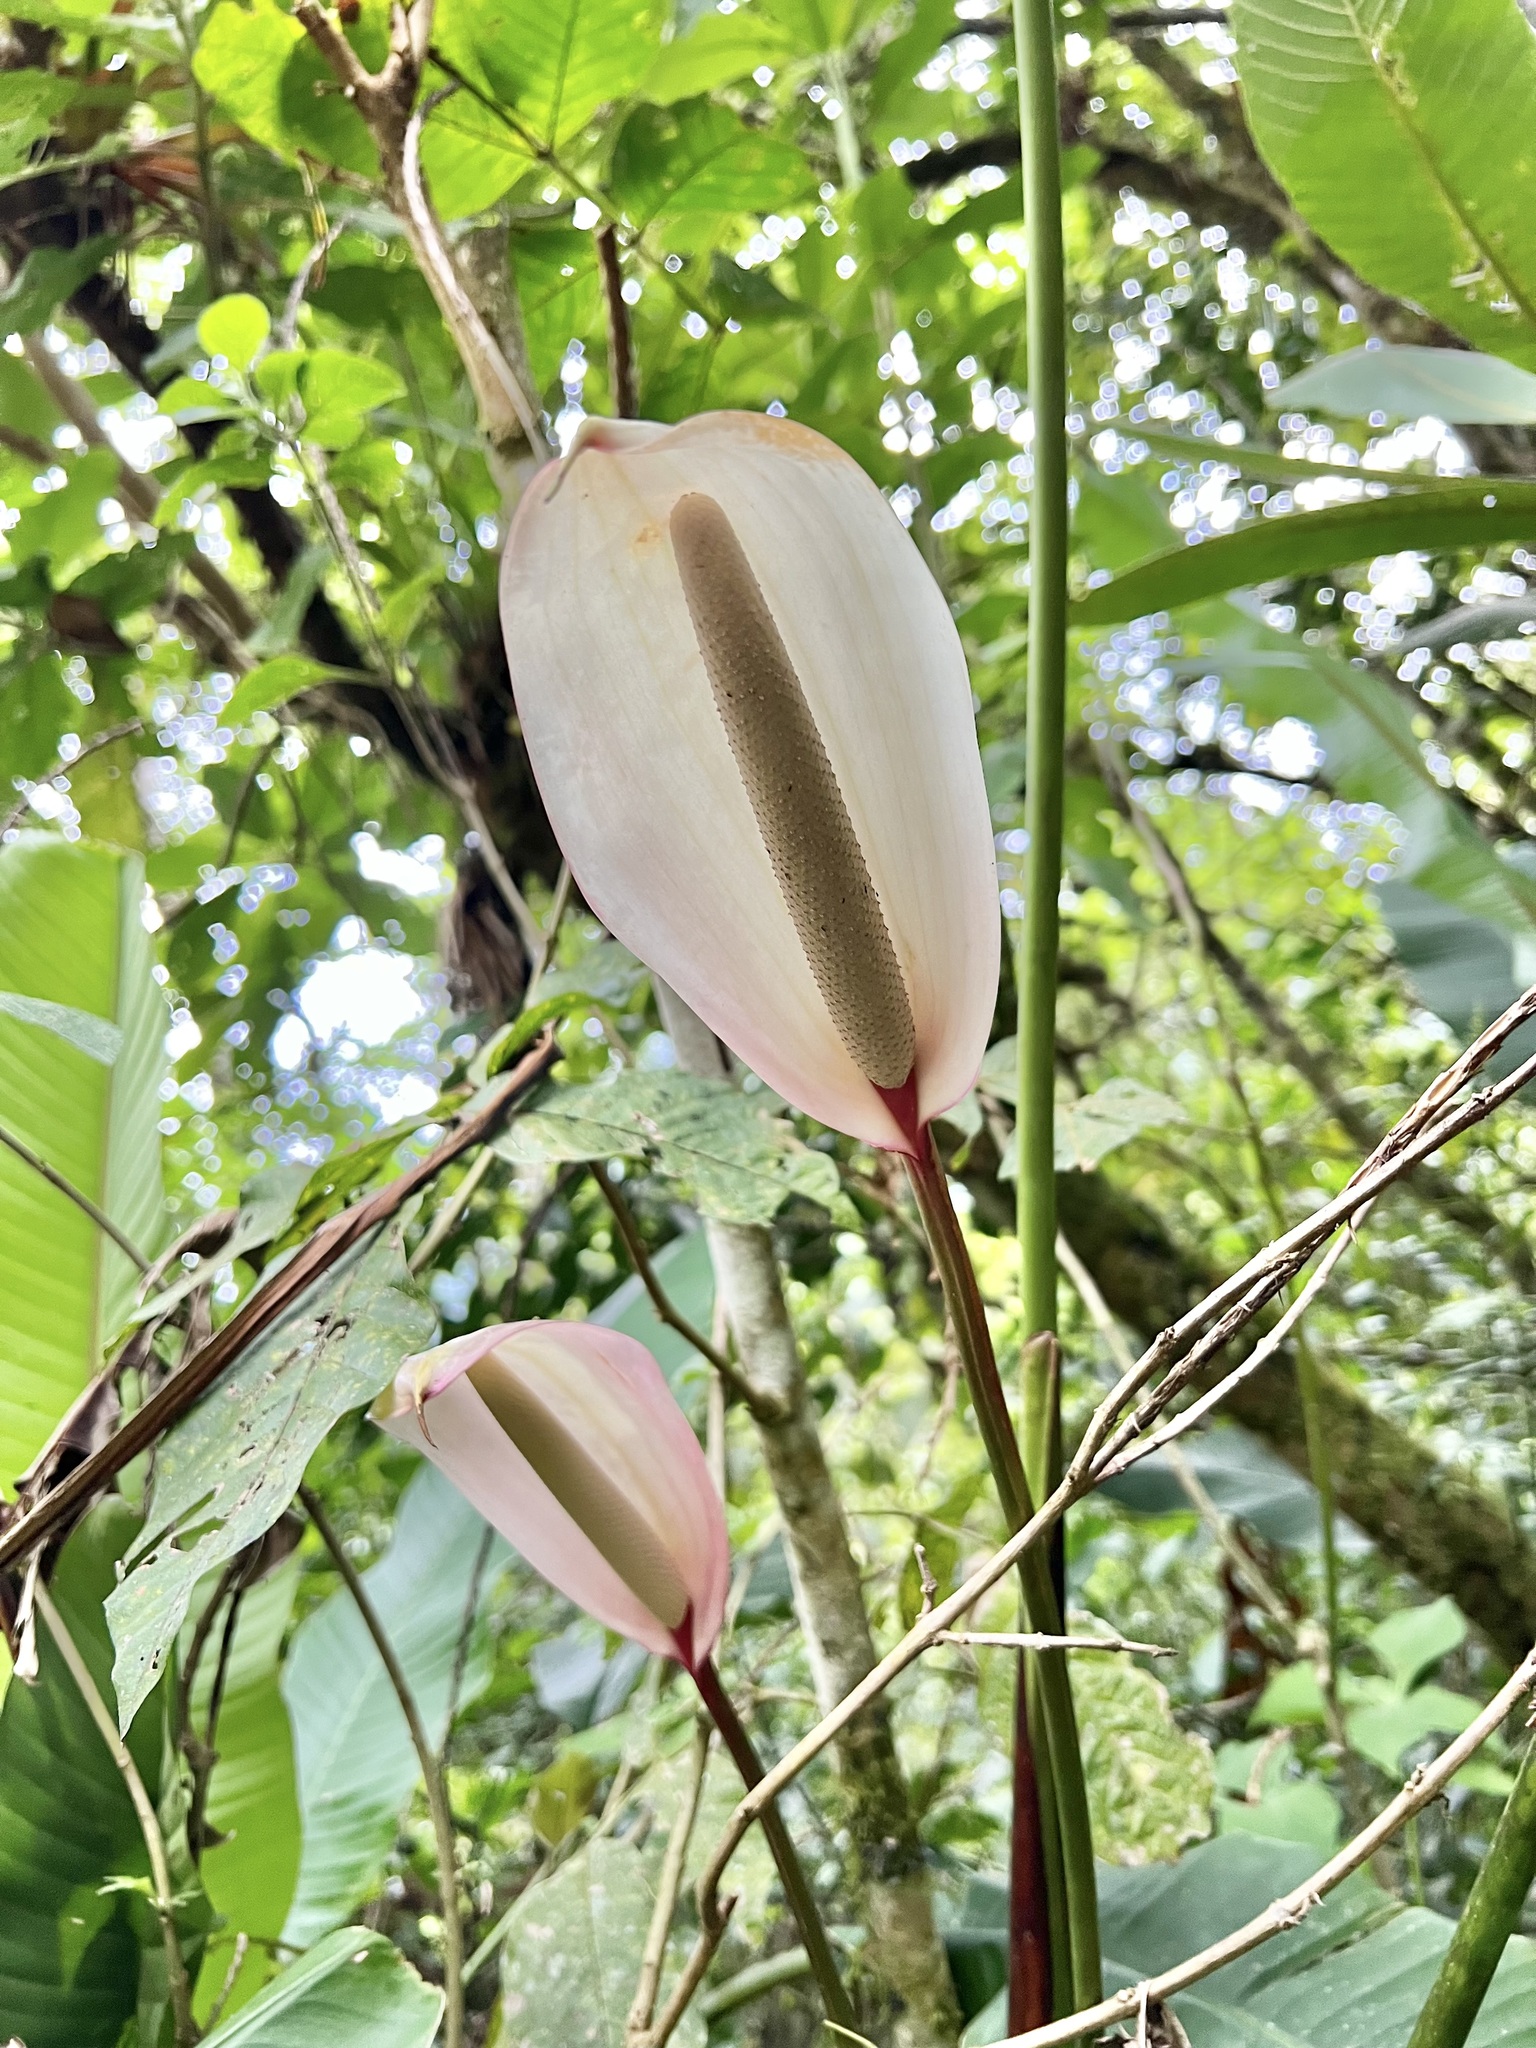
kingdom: Plantae
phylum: Tracheophyta
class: Liliopsida
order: Alismatales
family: Araceae
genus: Anthurium
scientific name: Anthurium formosum
